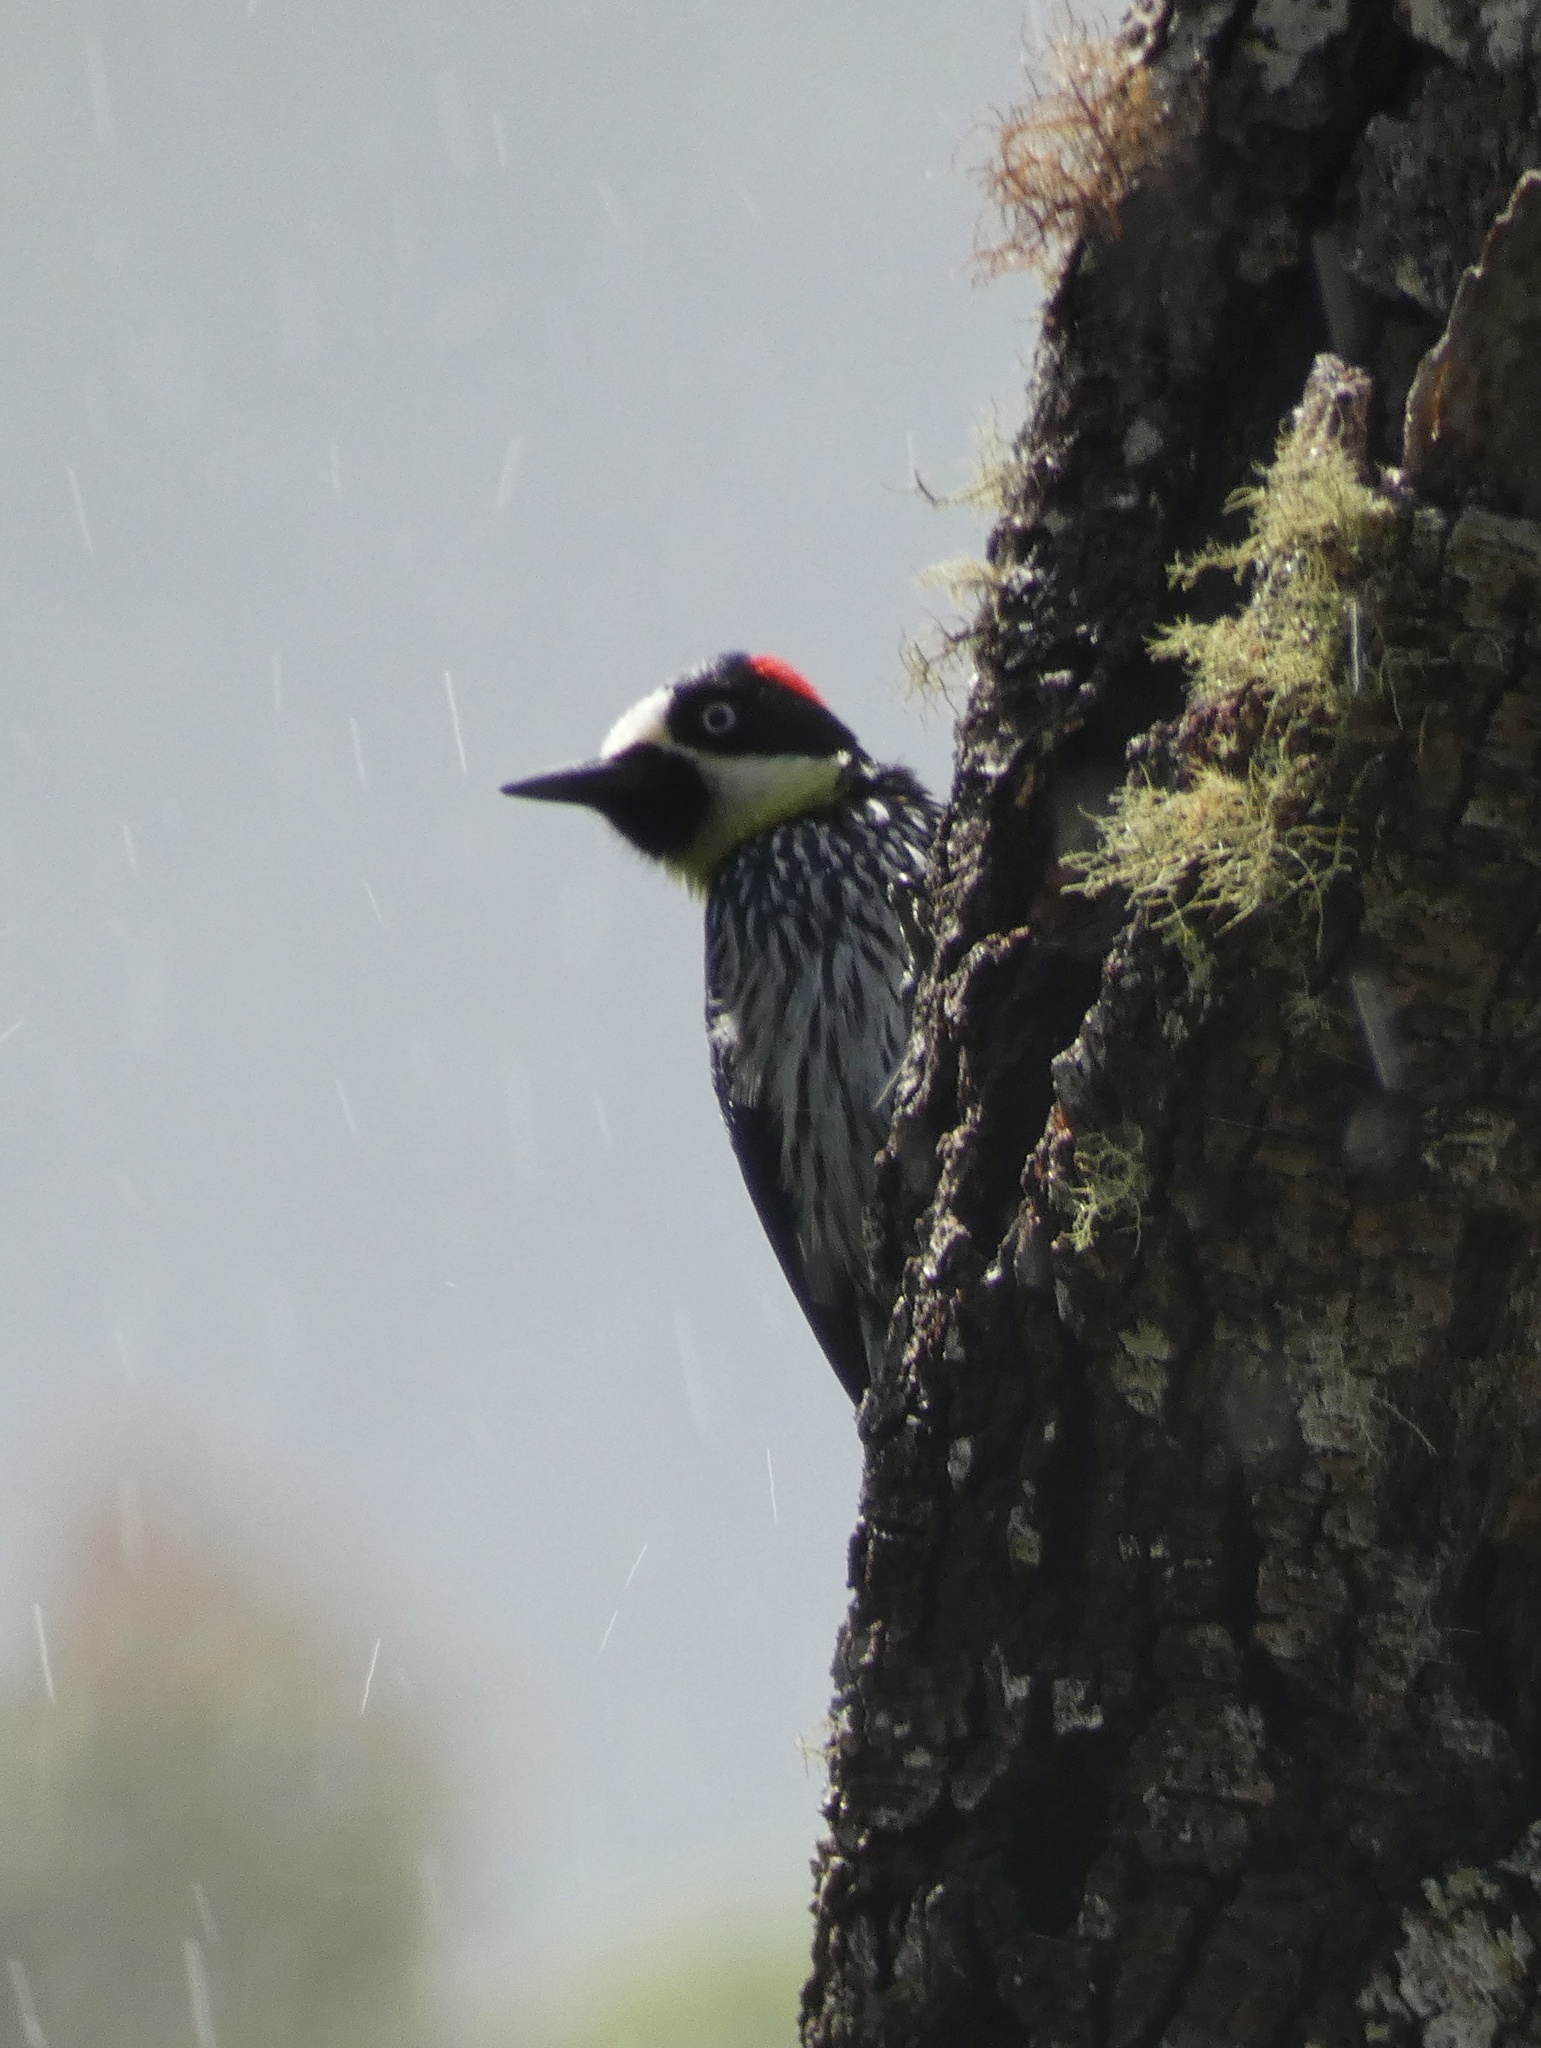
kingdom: Animalia
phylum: Chordata
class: Aves
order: Piciformes
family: Picidae
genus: Melanerpes
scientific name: Melanerpes formicivorus
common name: Acorn woodpecker
